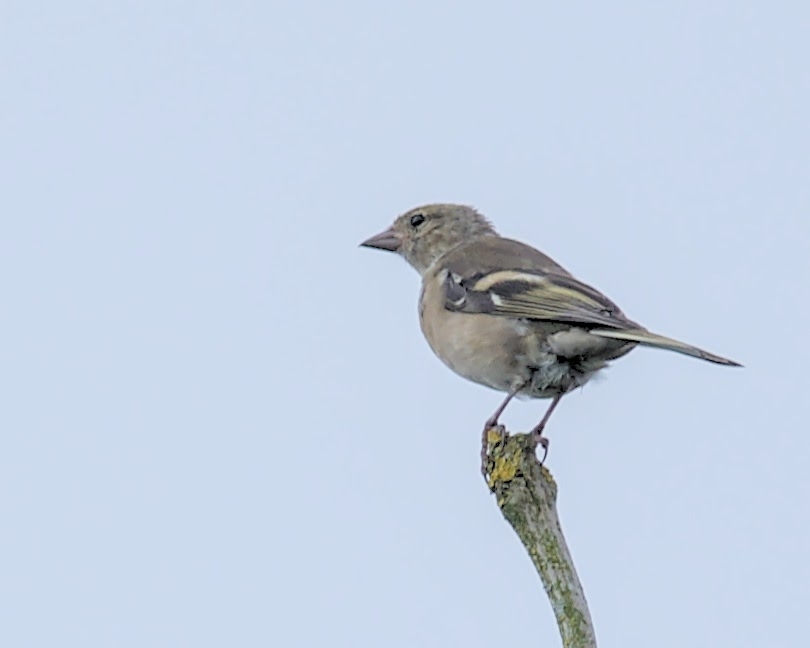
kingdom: Animalia
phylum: Chordata
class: Aves
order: Passeriformes
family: Fringillidae
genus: Fringilla
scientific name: Fringilla coelebs
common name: Common chaffinch
